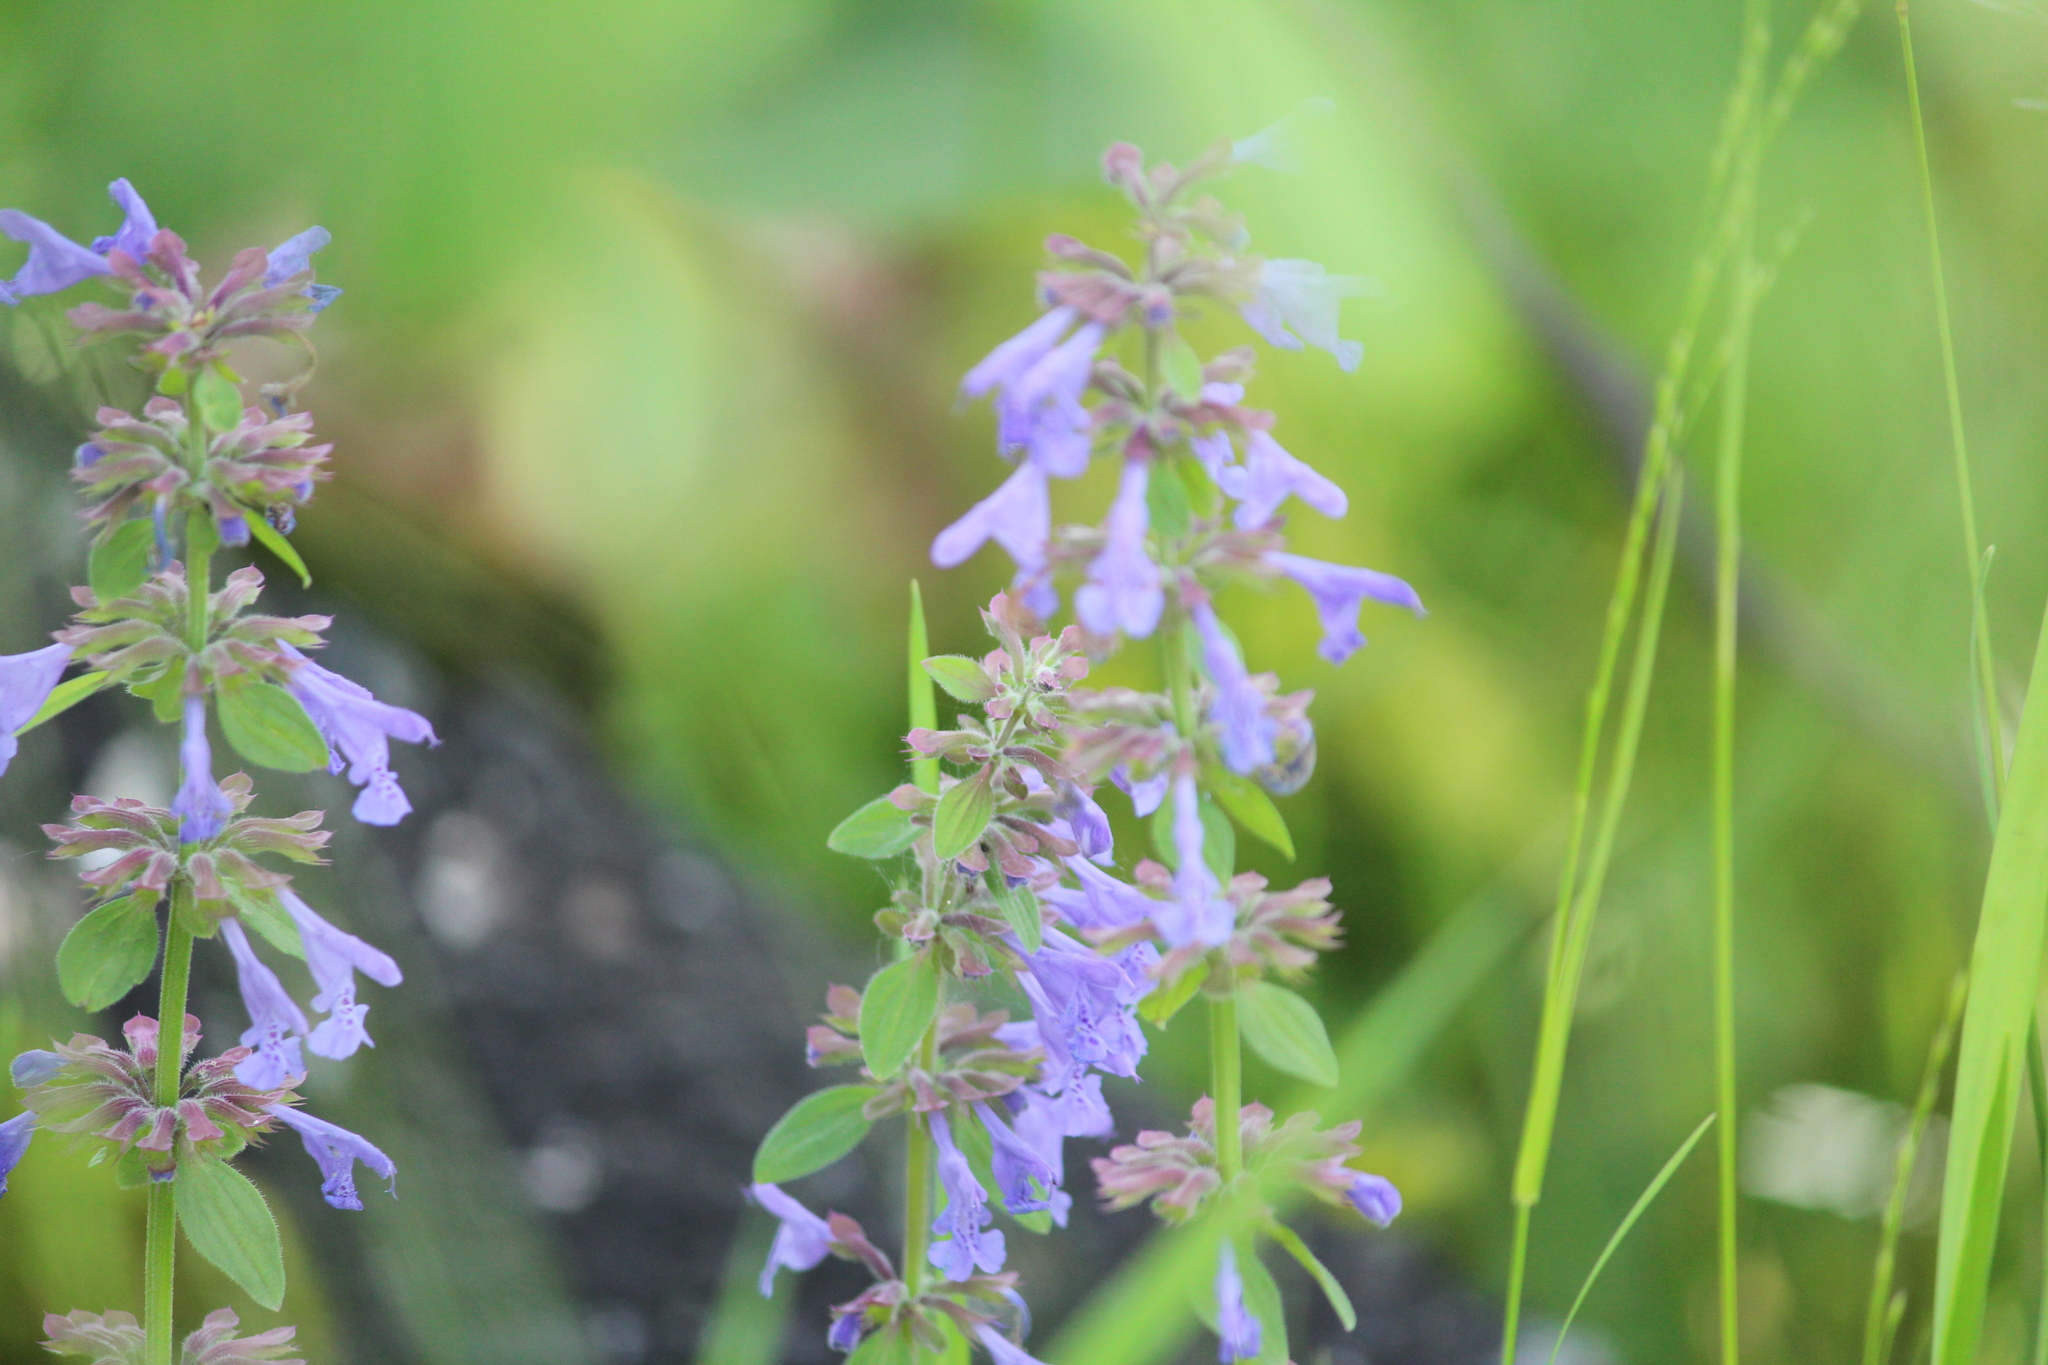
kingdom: Plantae
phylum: Tracheophyta
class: Magnoliopsida
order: Lamiales
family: Lamiaceae
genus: Dracocephalum
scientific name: Dracocephalum nutans
